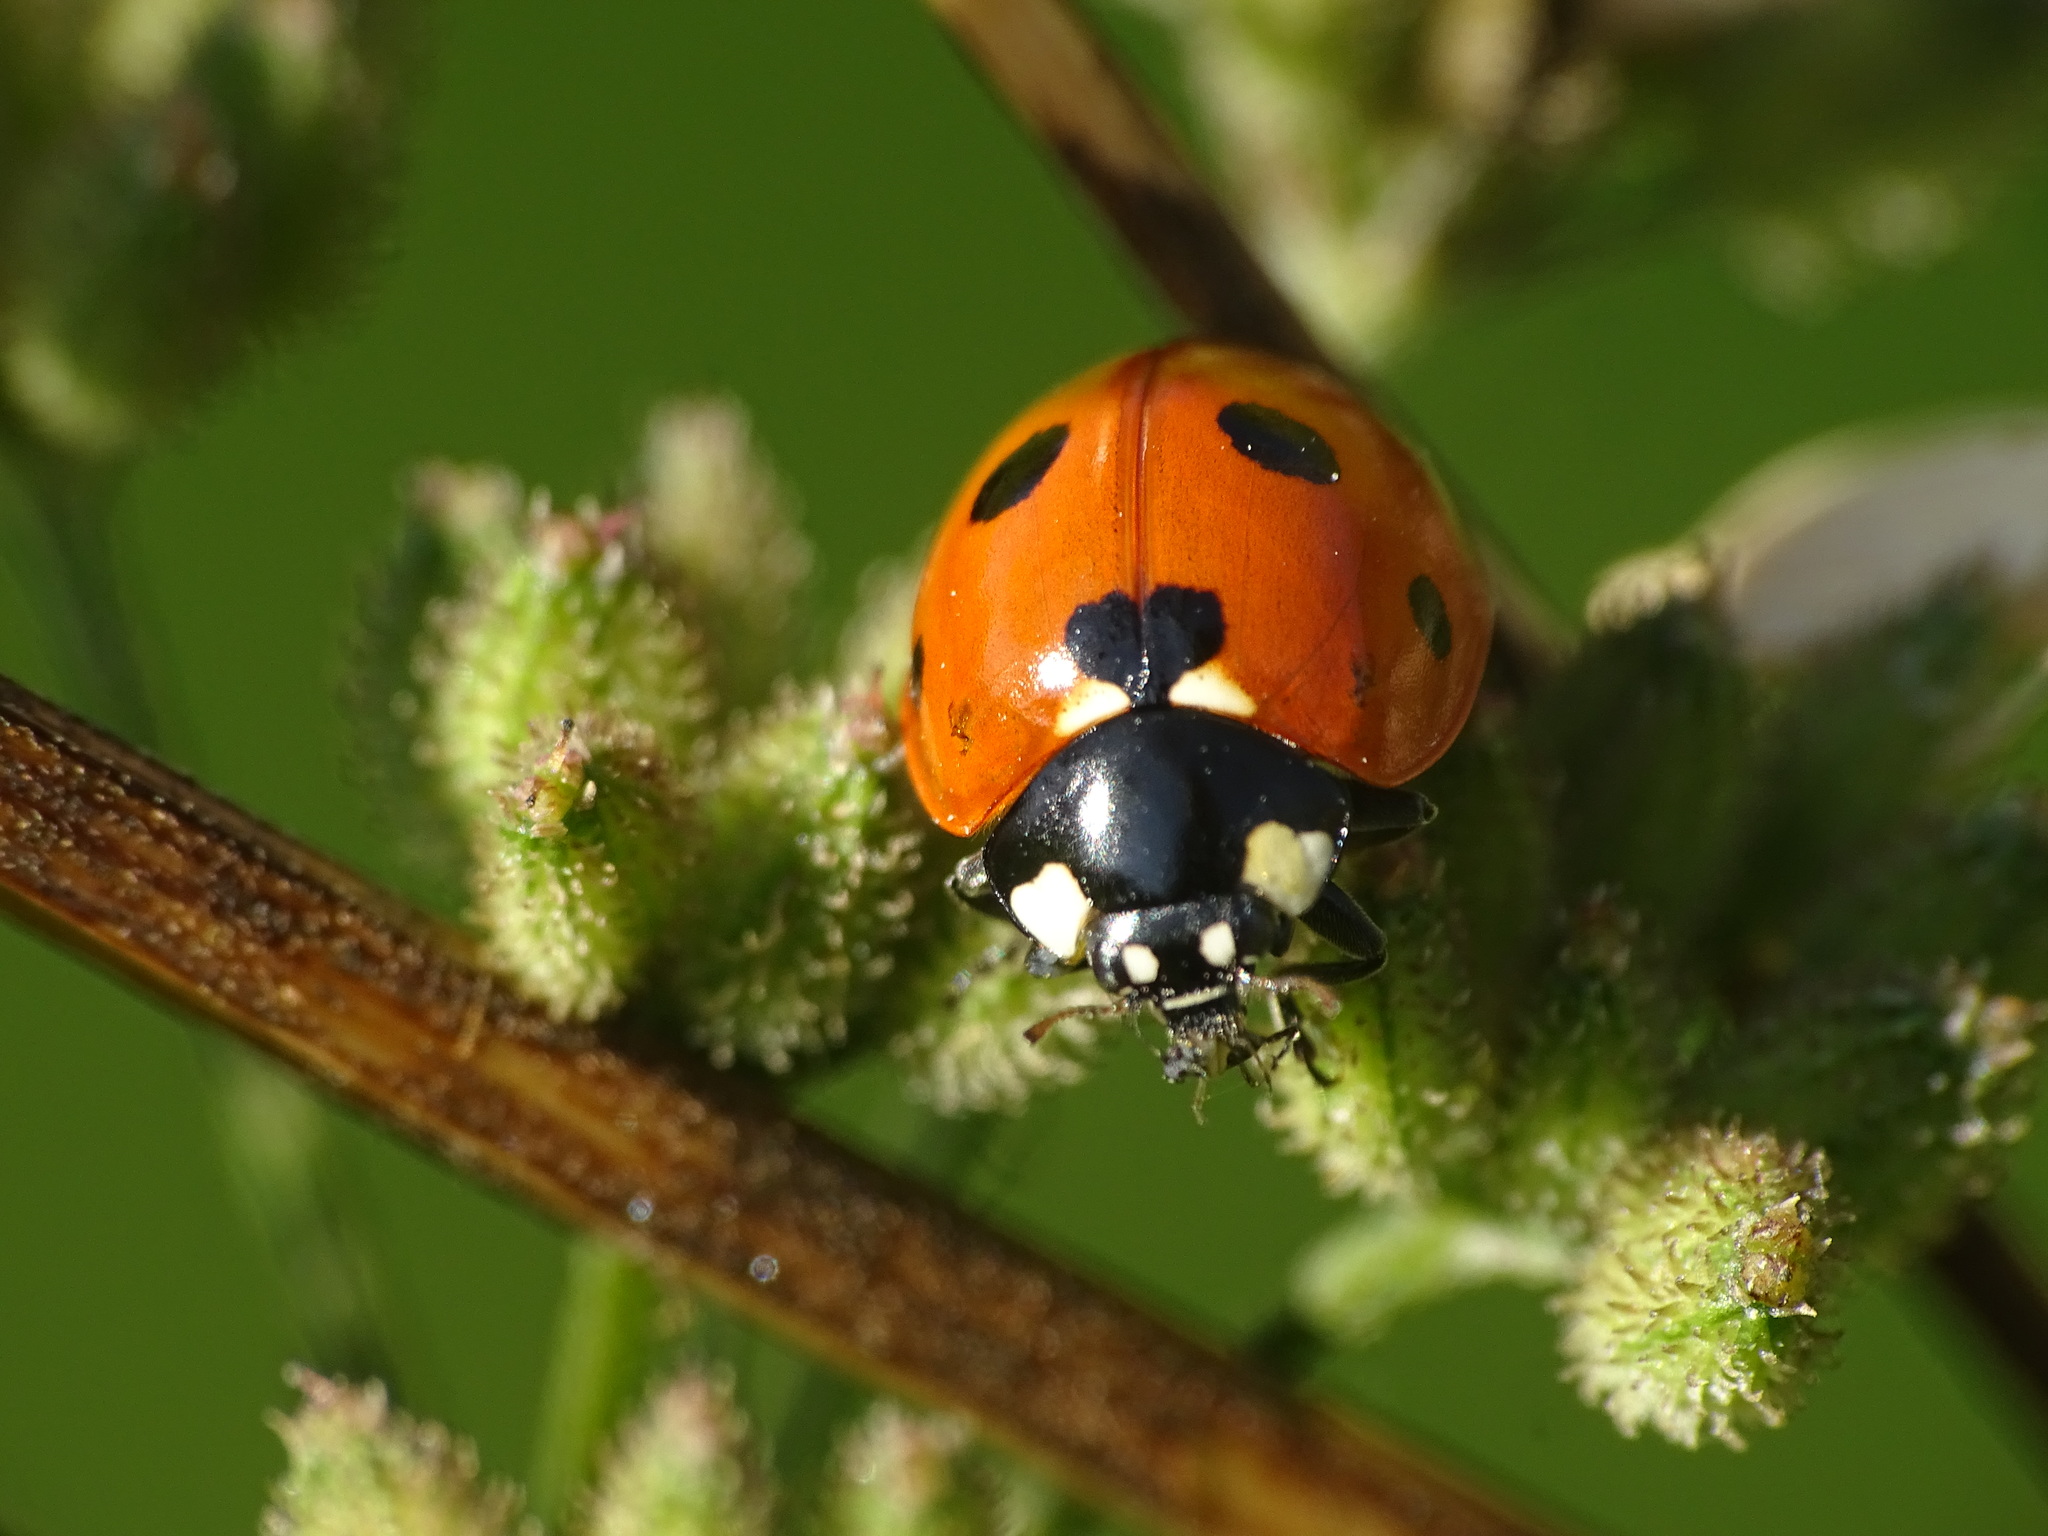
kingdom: Animalia
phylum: Arthropoda
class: Insecta
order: Coleoptera
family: Coccinellidae
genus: Coccinella
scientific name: Coccinella septempunctata
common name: Sevenspotted lady beetle
